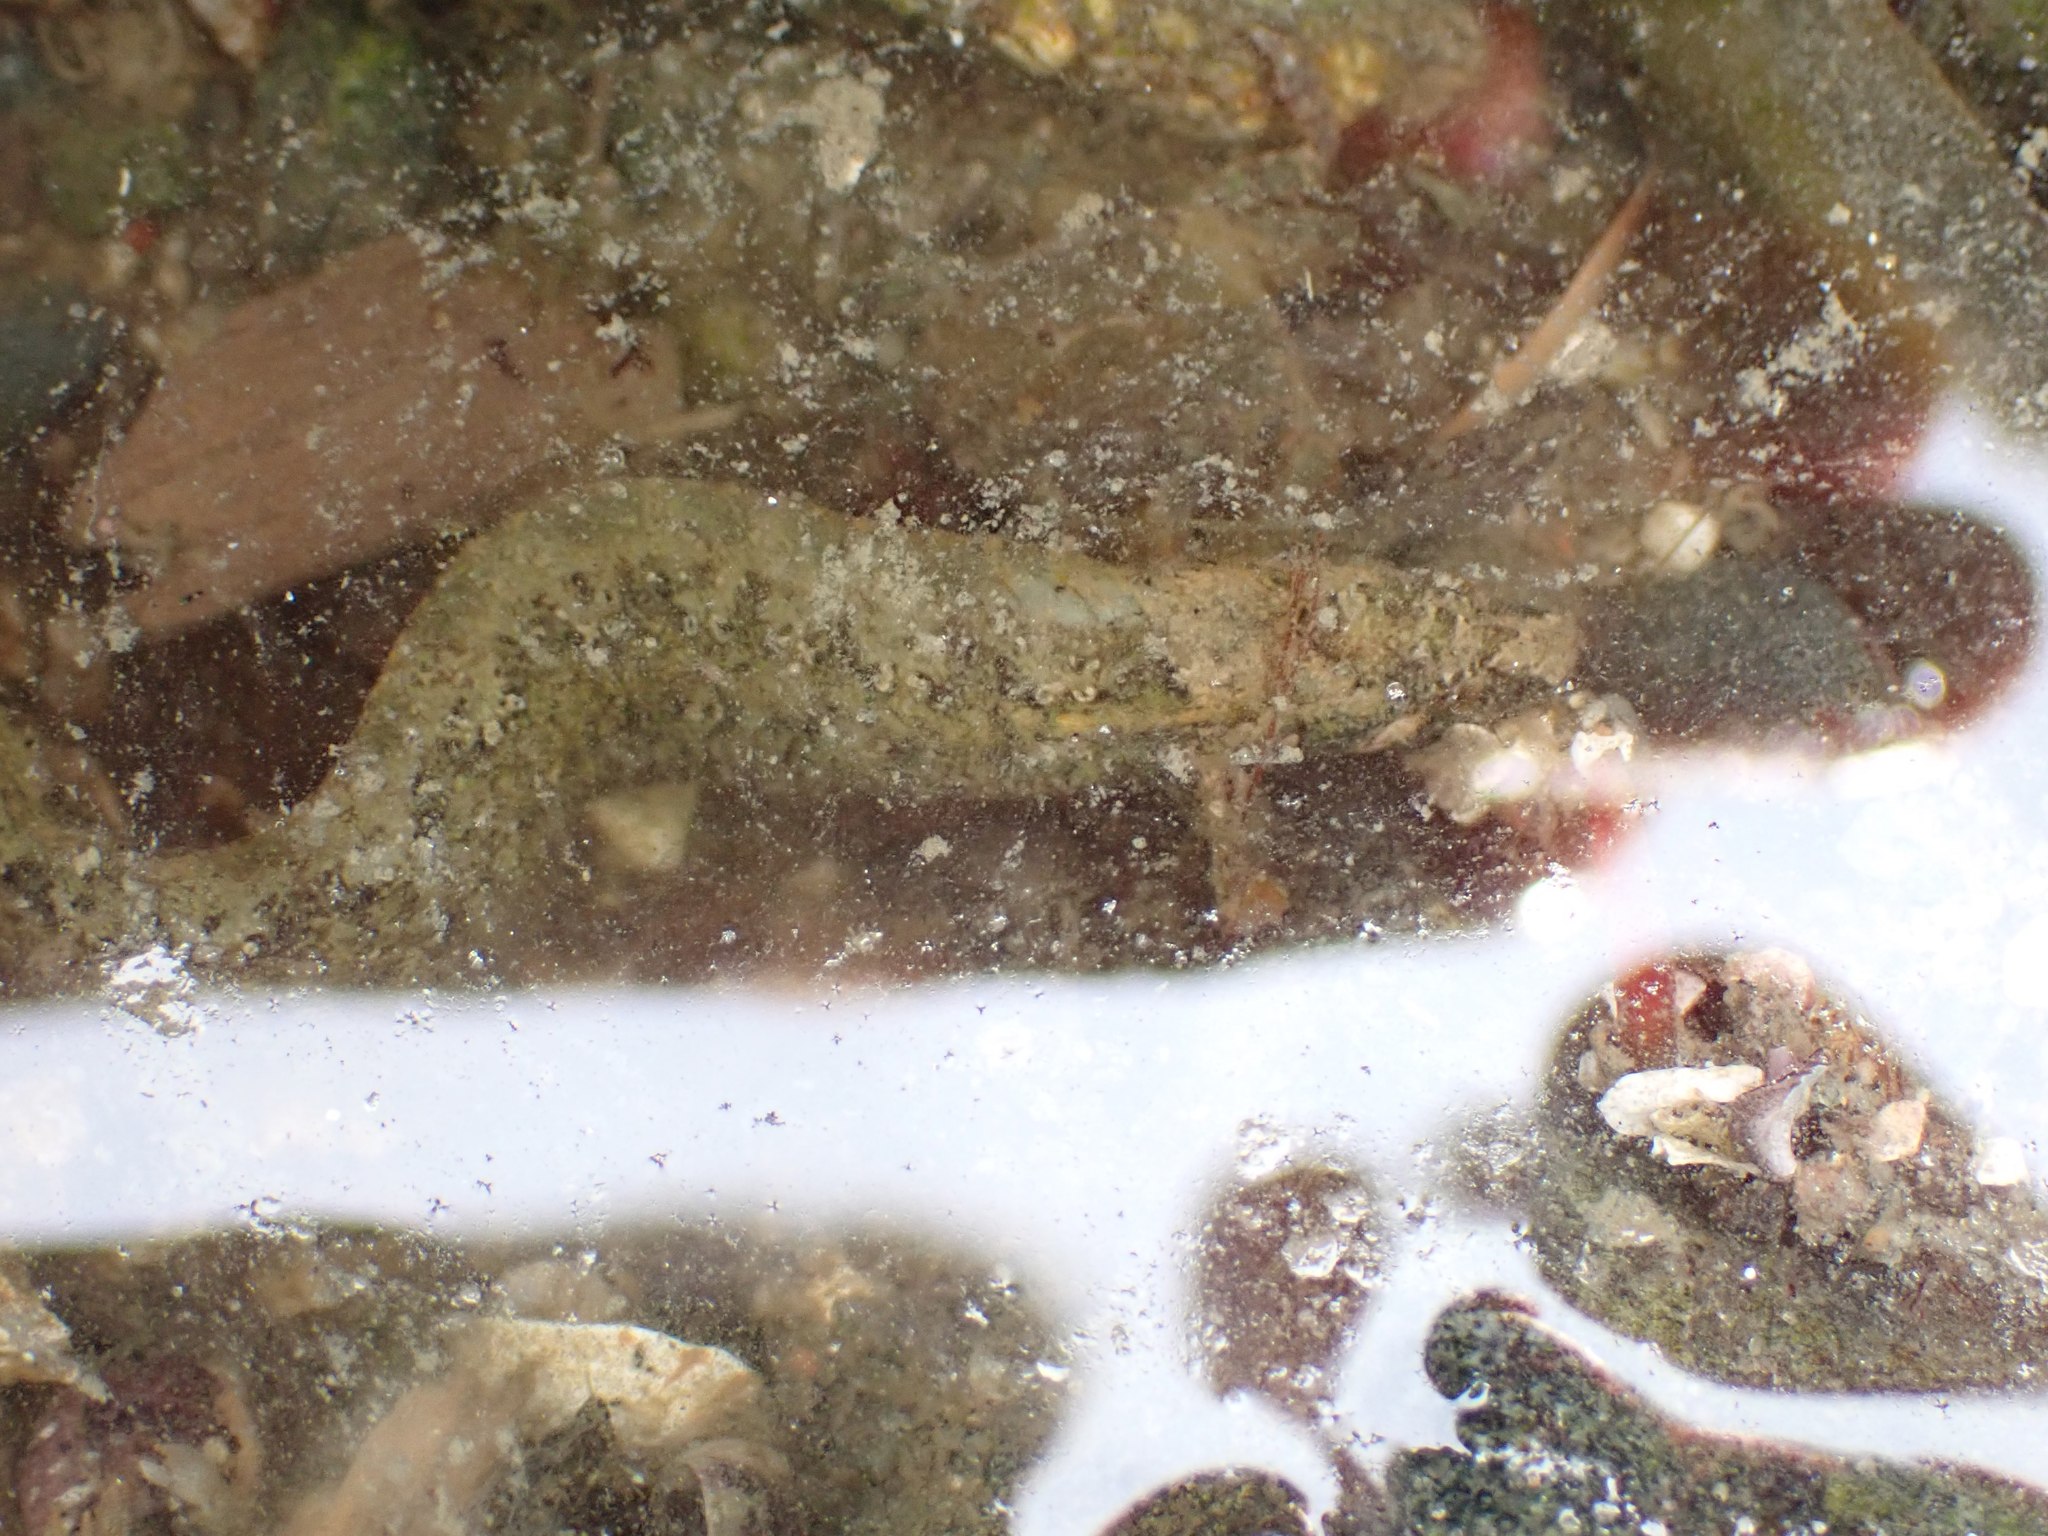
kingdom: Animalia
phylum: Chordata
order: Perciformes
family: Stichaeidae
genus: Anoplarchus
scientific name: Anoplarchus purpurescens
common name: High cockscomb
